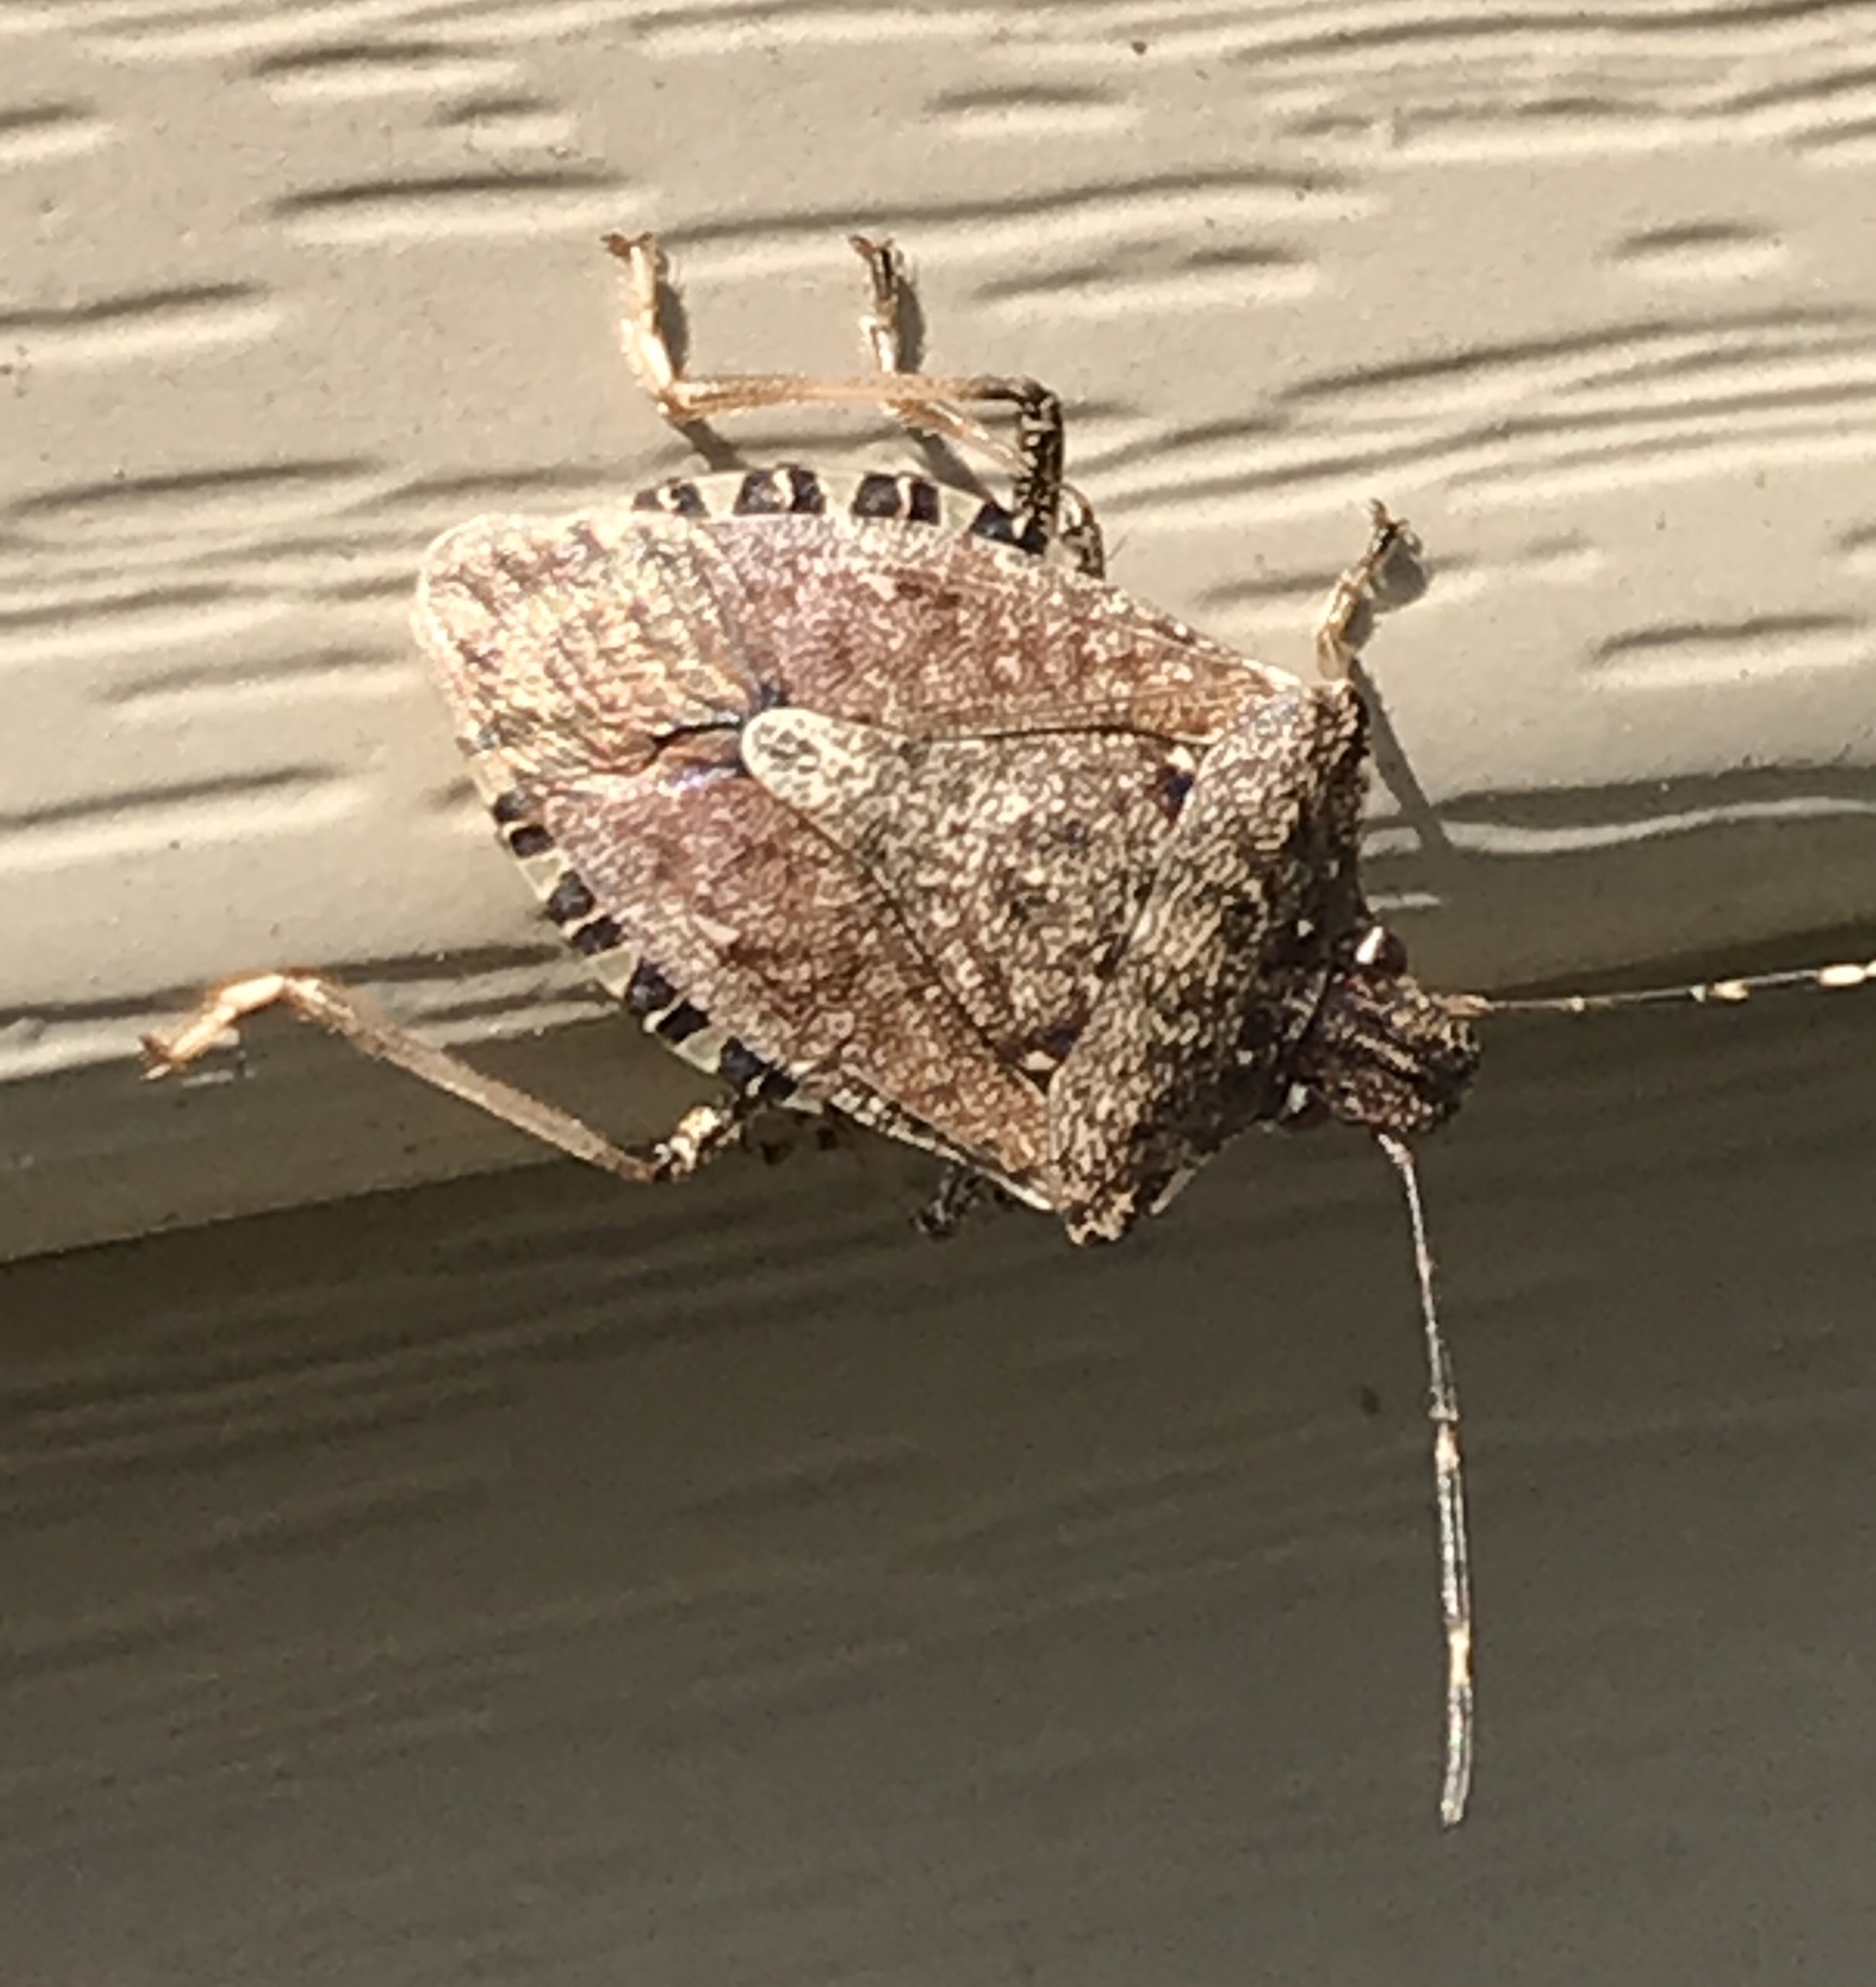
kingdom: Animalia
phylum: Arthropoda
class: Insecta
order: Hemiptera
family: Pentatomidae
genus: Halyomorpha
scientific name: Halyomorpha halys
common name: Brown marmorated stink bug
